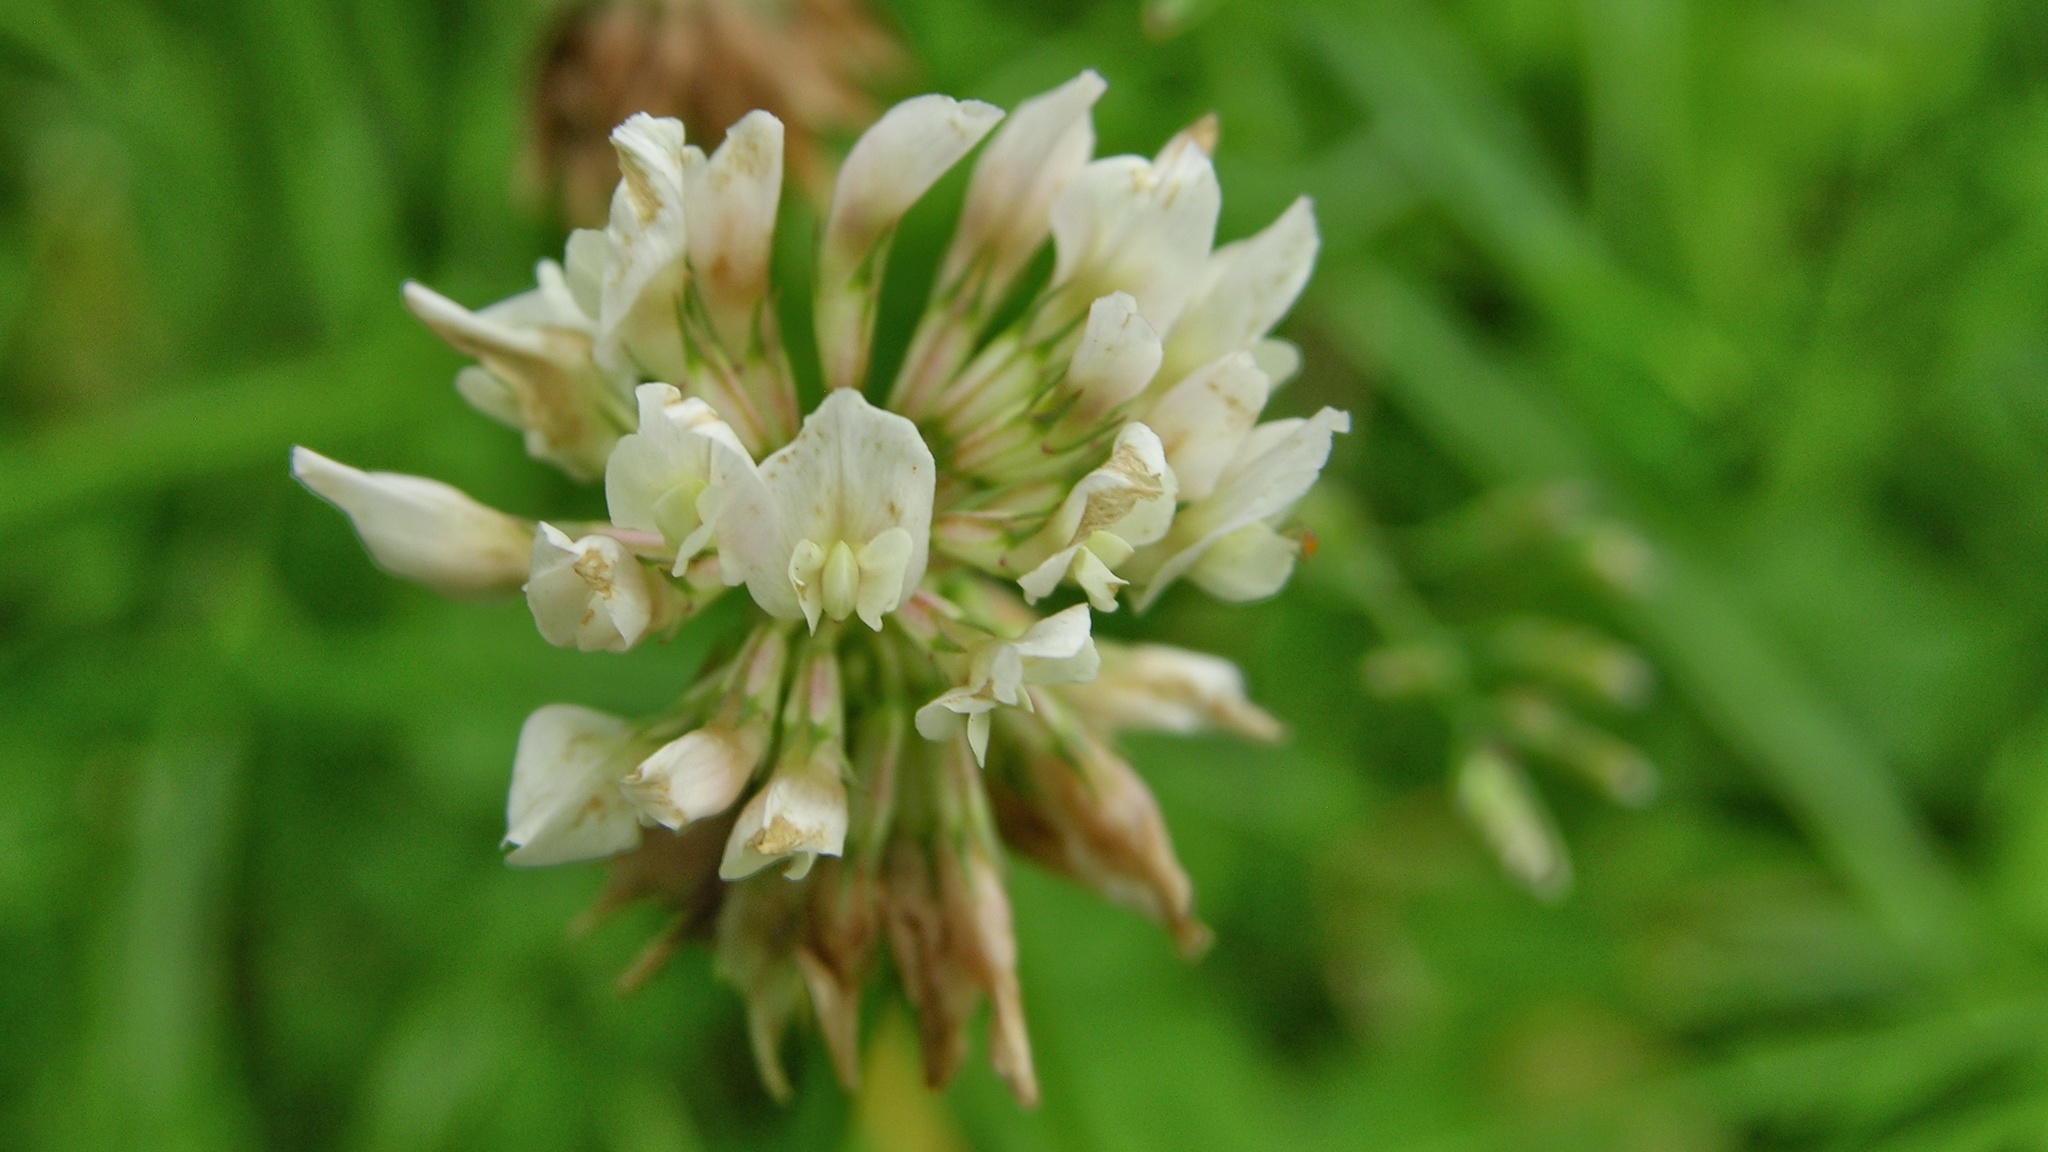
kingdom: Plantae
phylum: Tracheophyta
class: Magnoliopsida
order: Fabales
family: Fabaceae
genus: Trifolium
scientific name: Trifolium repens
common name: White clover
